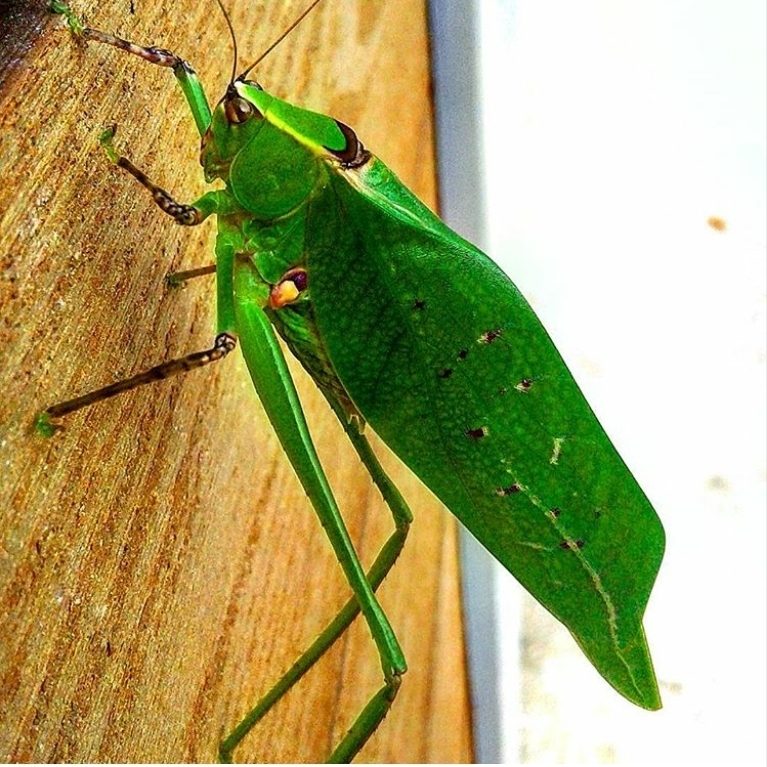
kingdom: Animalia
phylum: Arthropoda
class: Insecta
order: Orthoptera
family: Tettigoniidae
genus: Stilpnochlora
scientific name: Stilpnochlora thoracica
